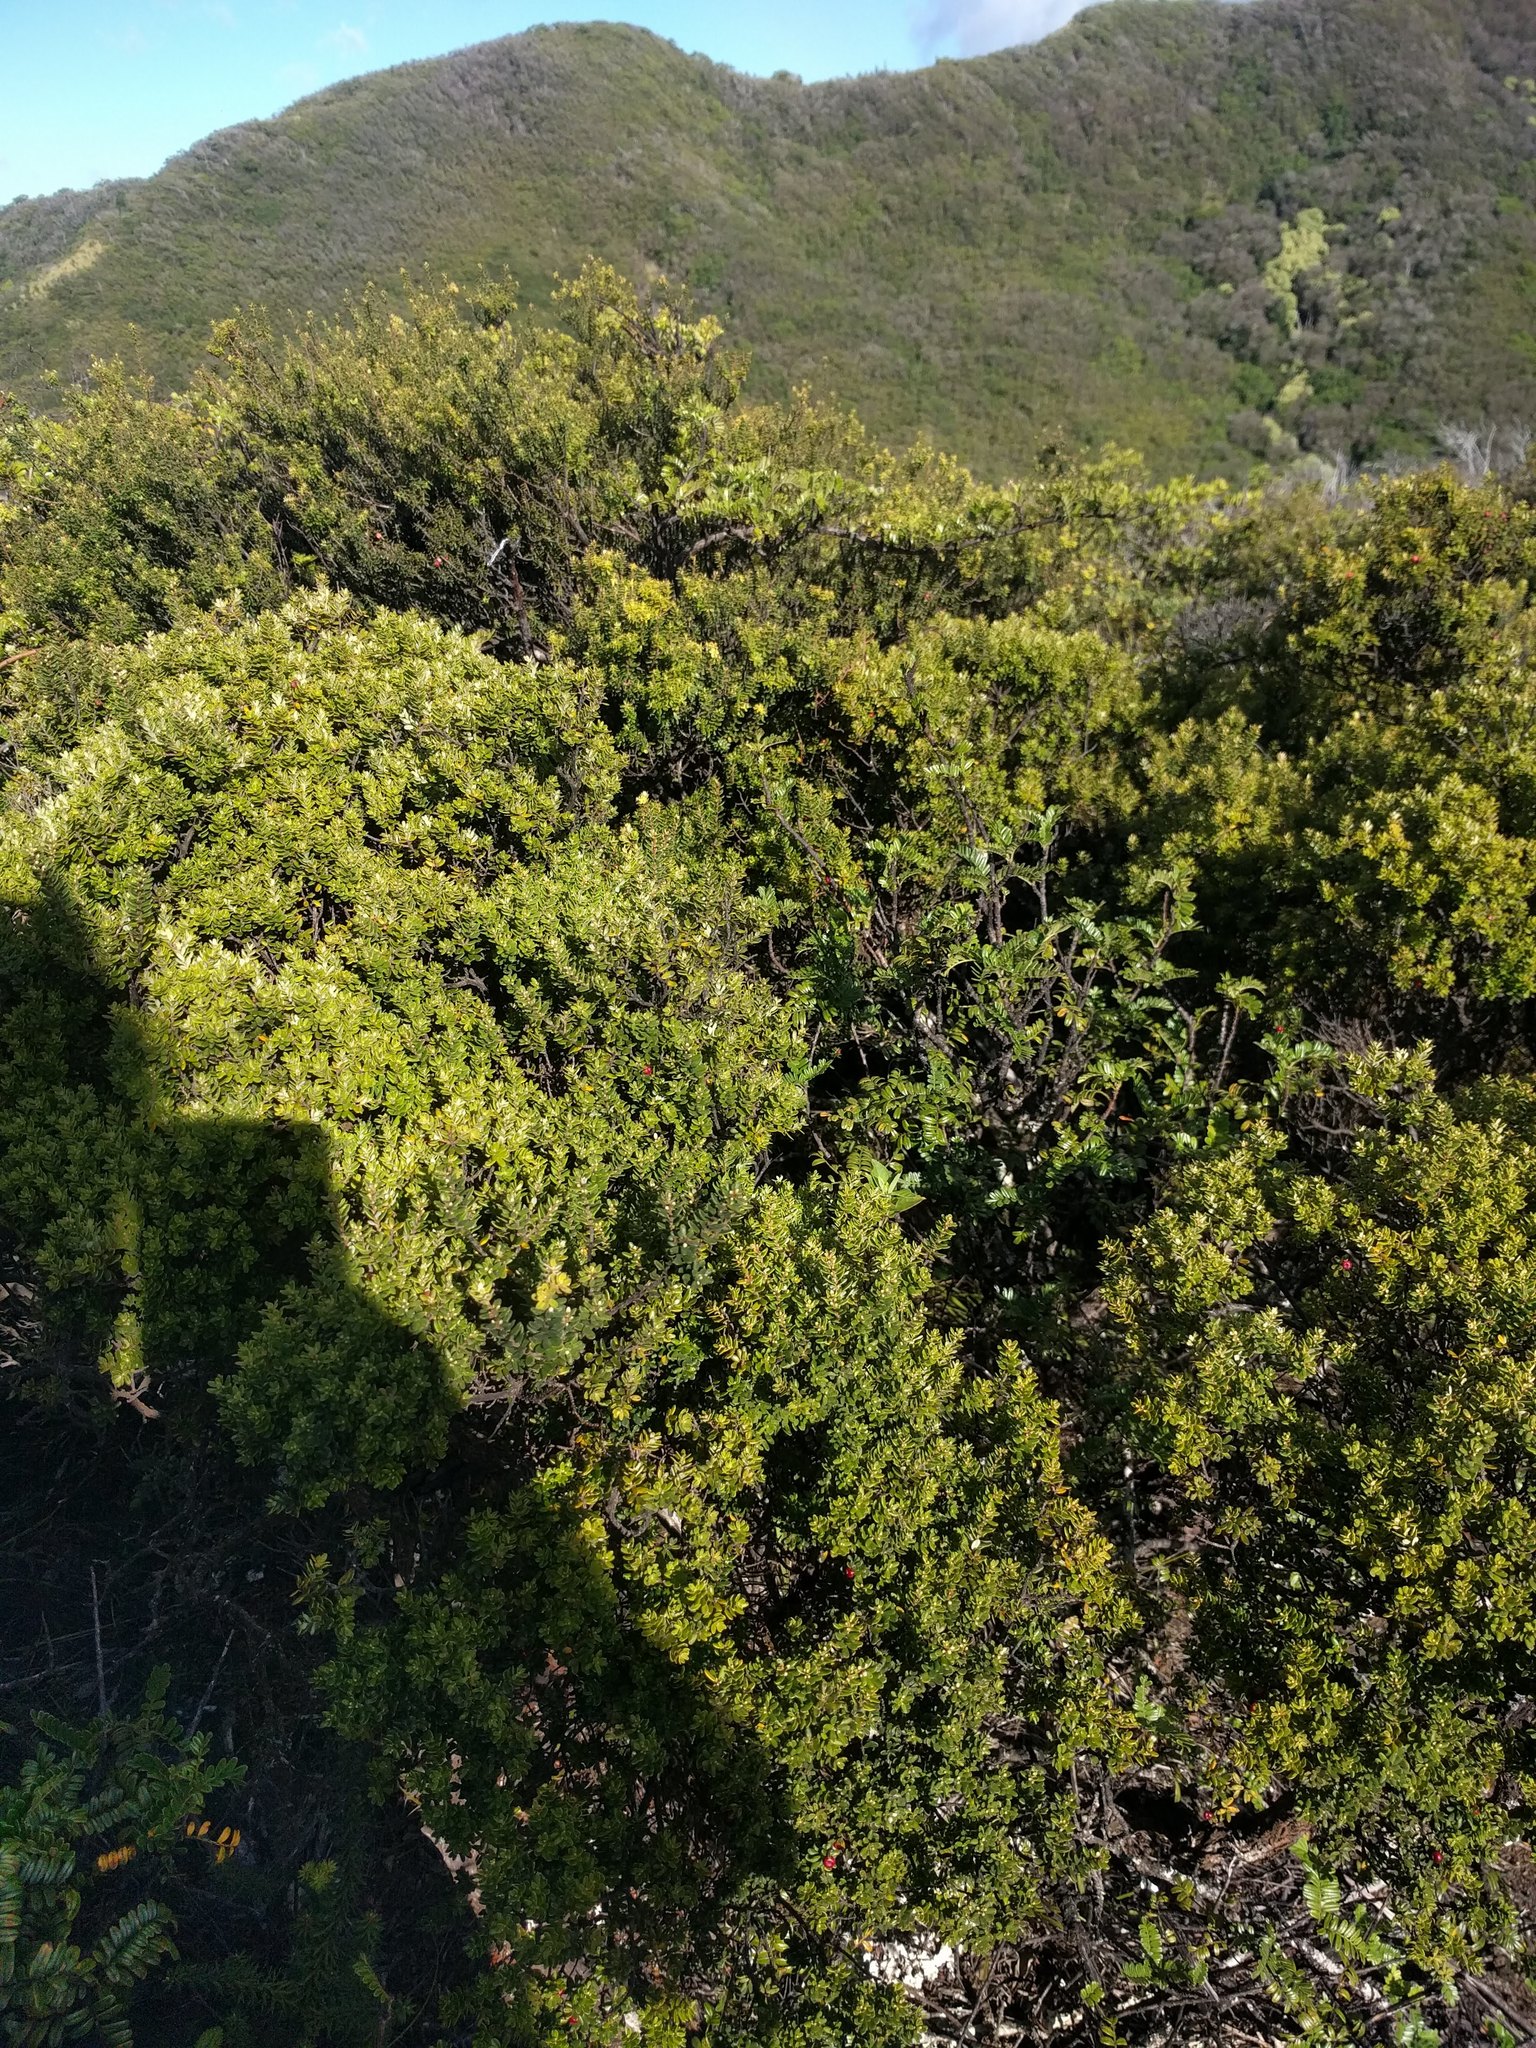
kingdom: Plantae
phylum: Tracheophyta
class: Magnoliopsida
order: Myrtales
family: Myrtaceae
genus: Metrosideros
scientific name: Metrosideros polymorpha
